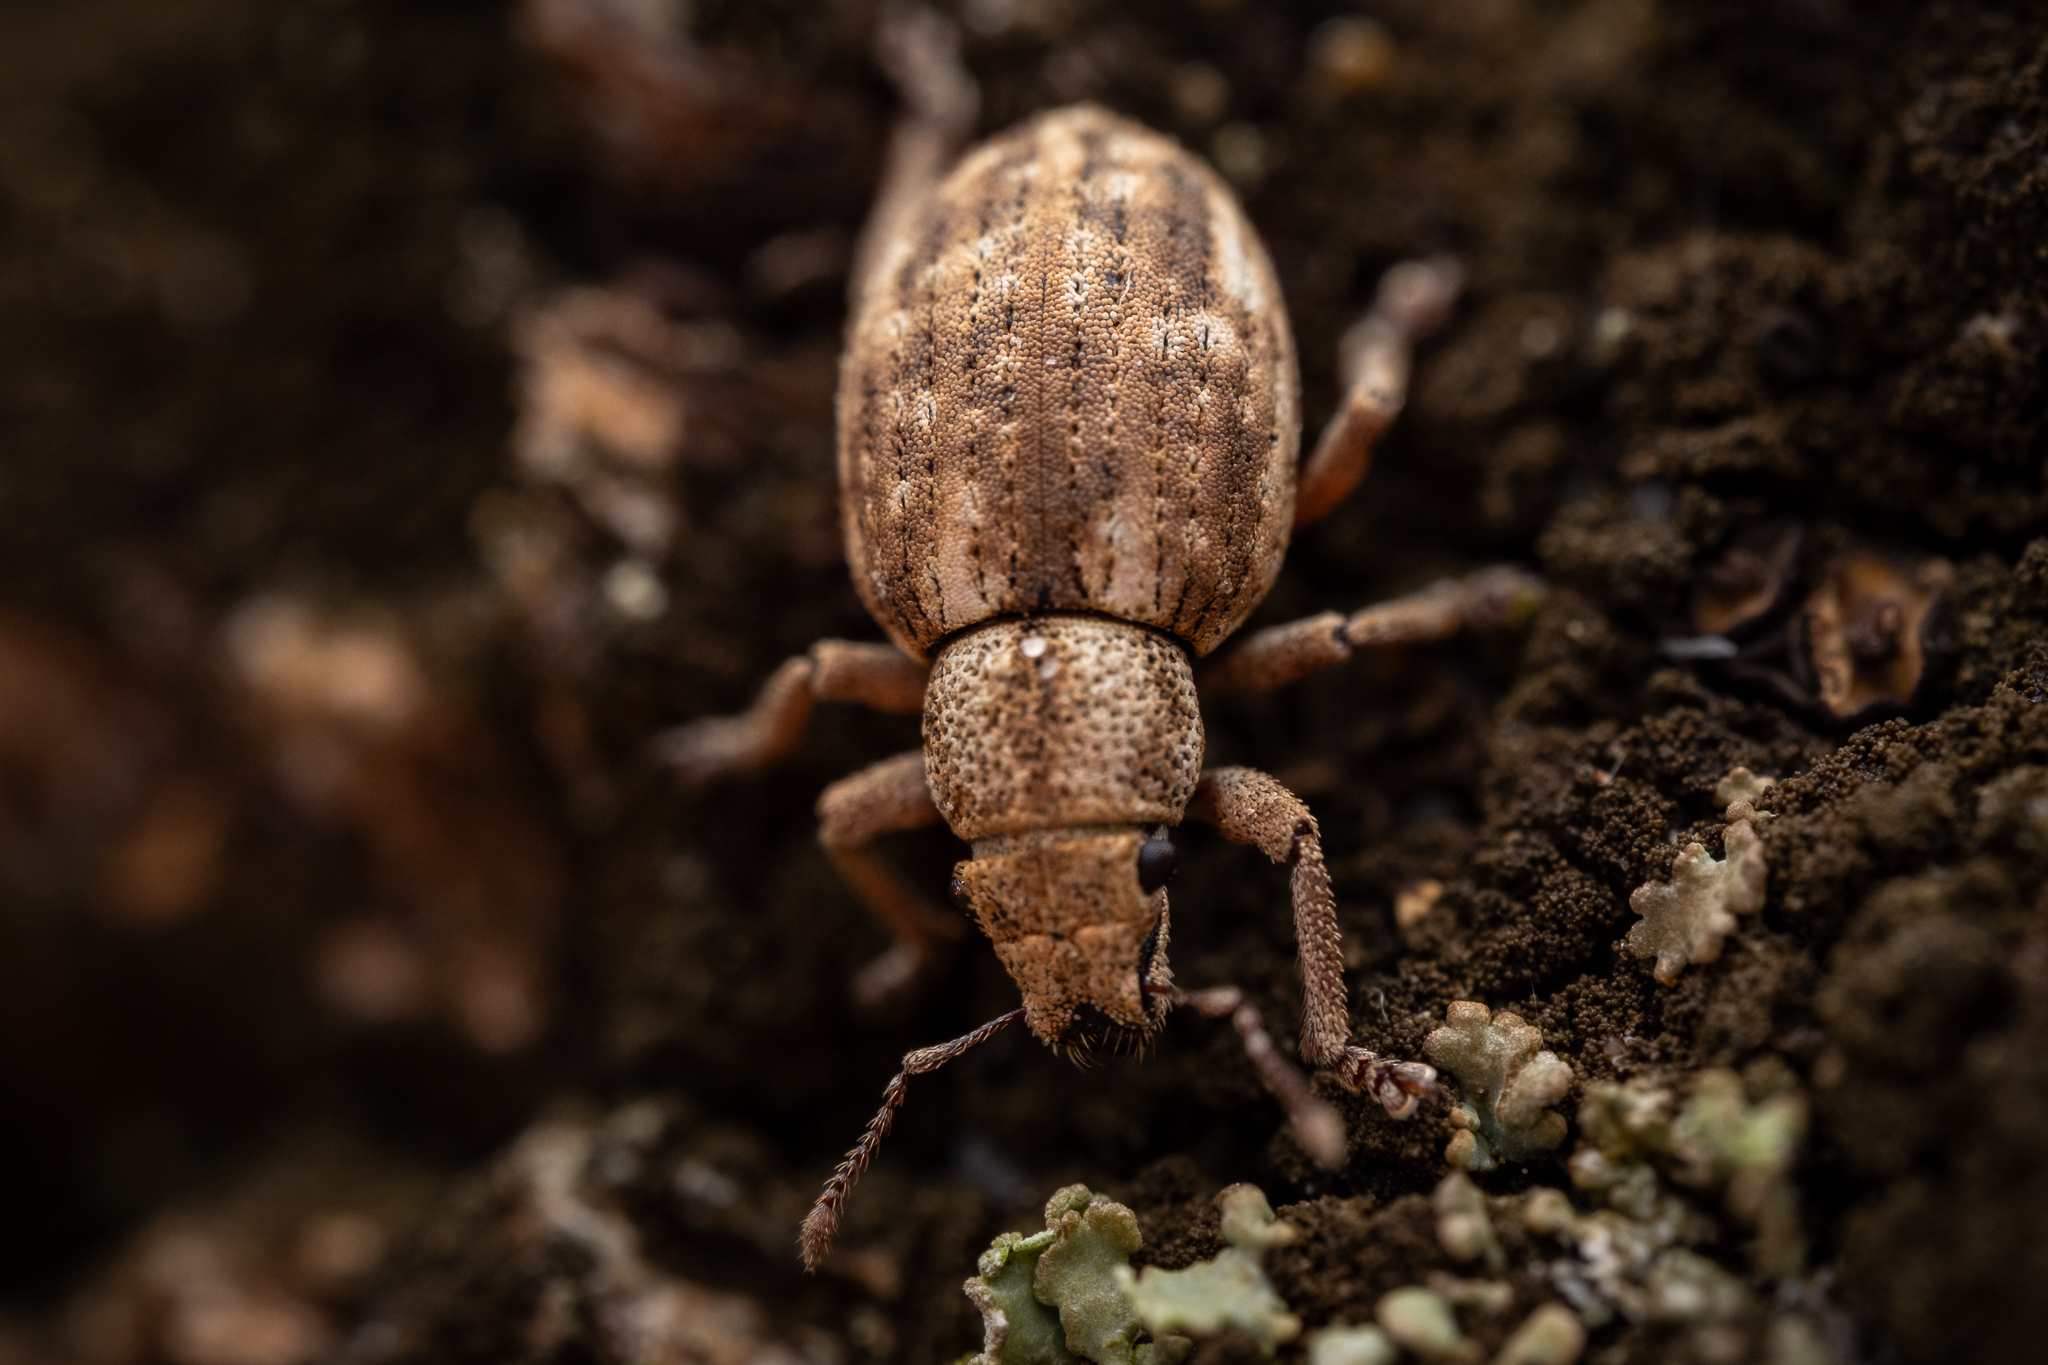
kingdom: Animalia
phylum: Arthropoda
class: Insecta
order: Coleoptera
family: Curculionidae
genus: Strophosoma
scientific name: Strophosoma capitatum
